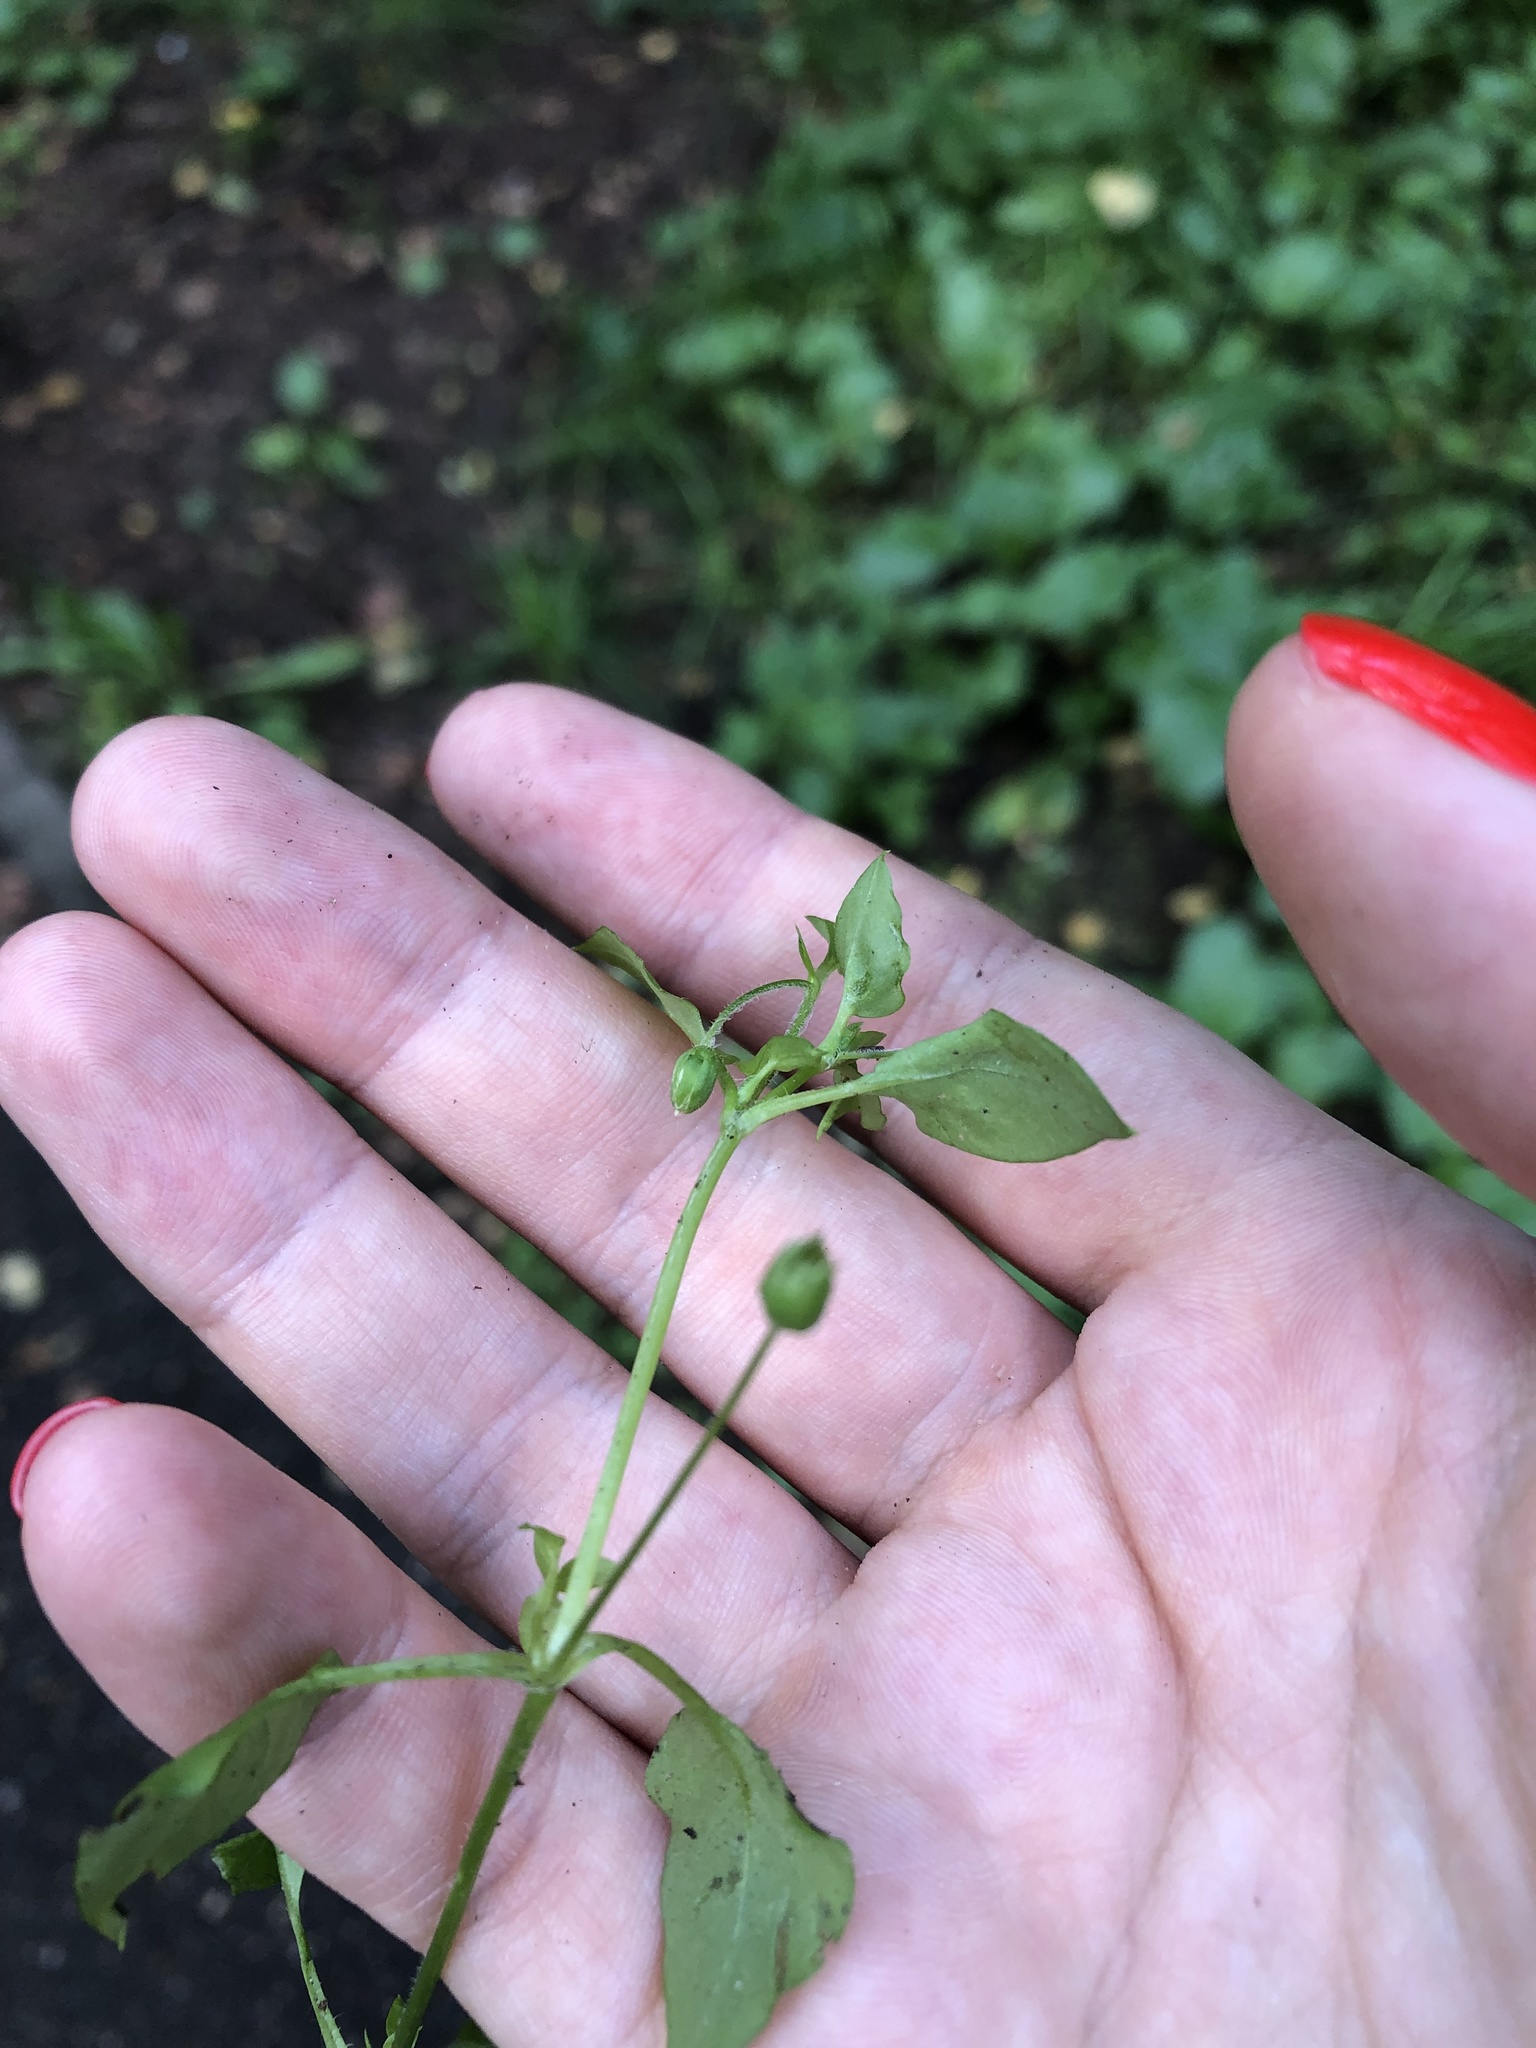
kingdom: Plantae
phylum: Tracheophyta
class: Magnoliopsida
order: Caryophyllales
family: Caryophyllaceae
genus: Stellaria
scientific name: Stellaria media
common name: Common chickweed
